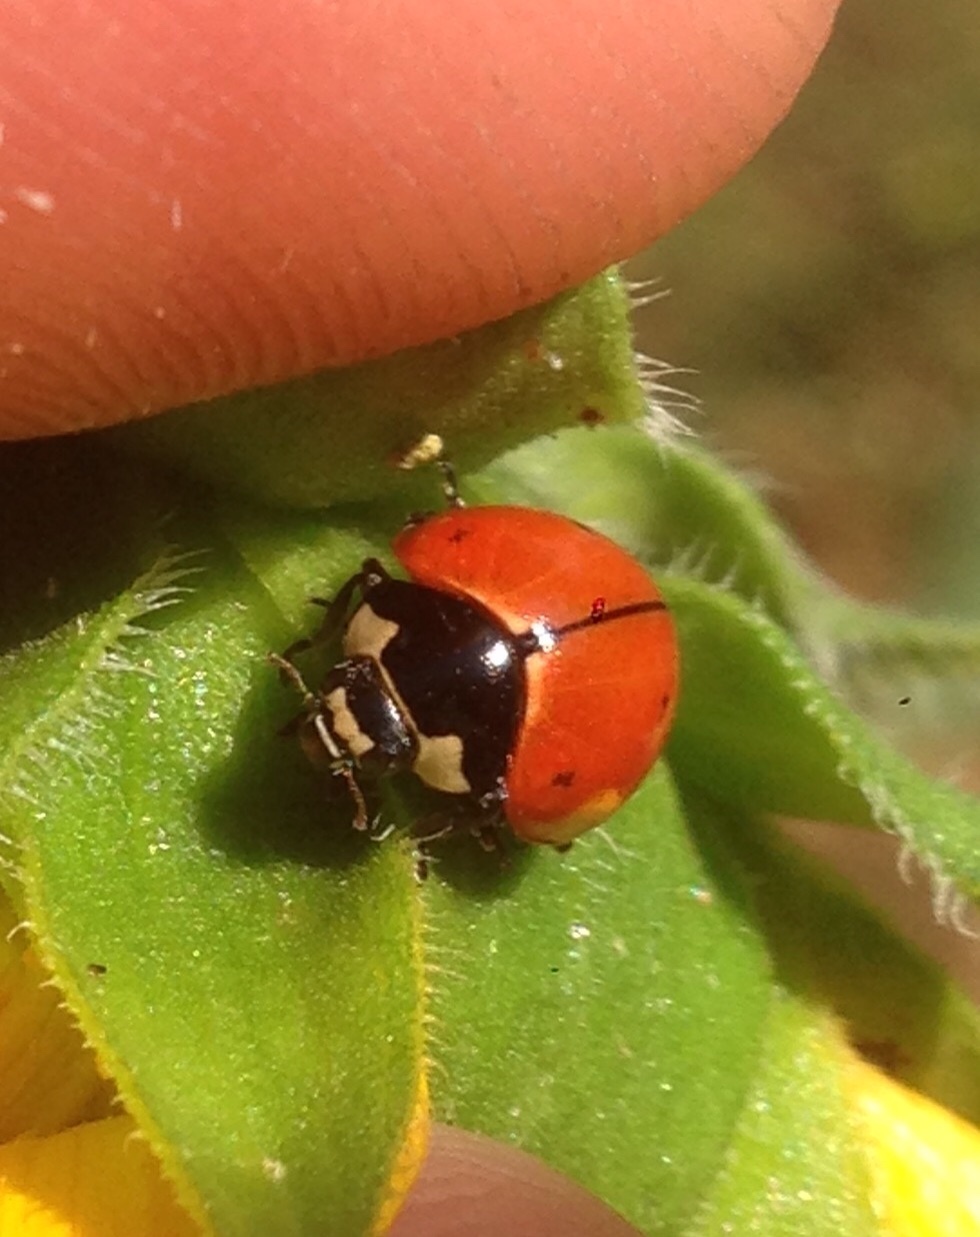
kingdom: Animalia
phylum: Arthropoda
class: Insecta
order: Coleoptera
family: Coccinellidae
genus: Coccinella
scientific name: Coccinella novemnotata
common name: Nine-spotted lady beetle
